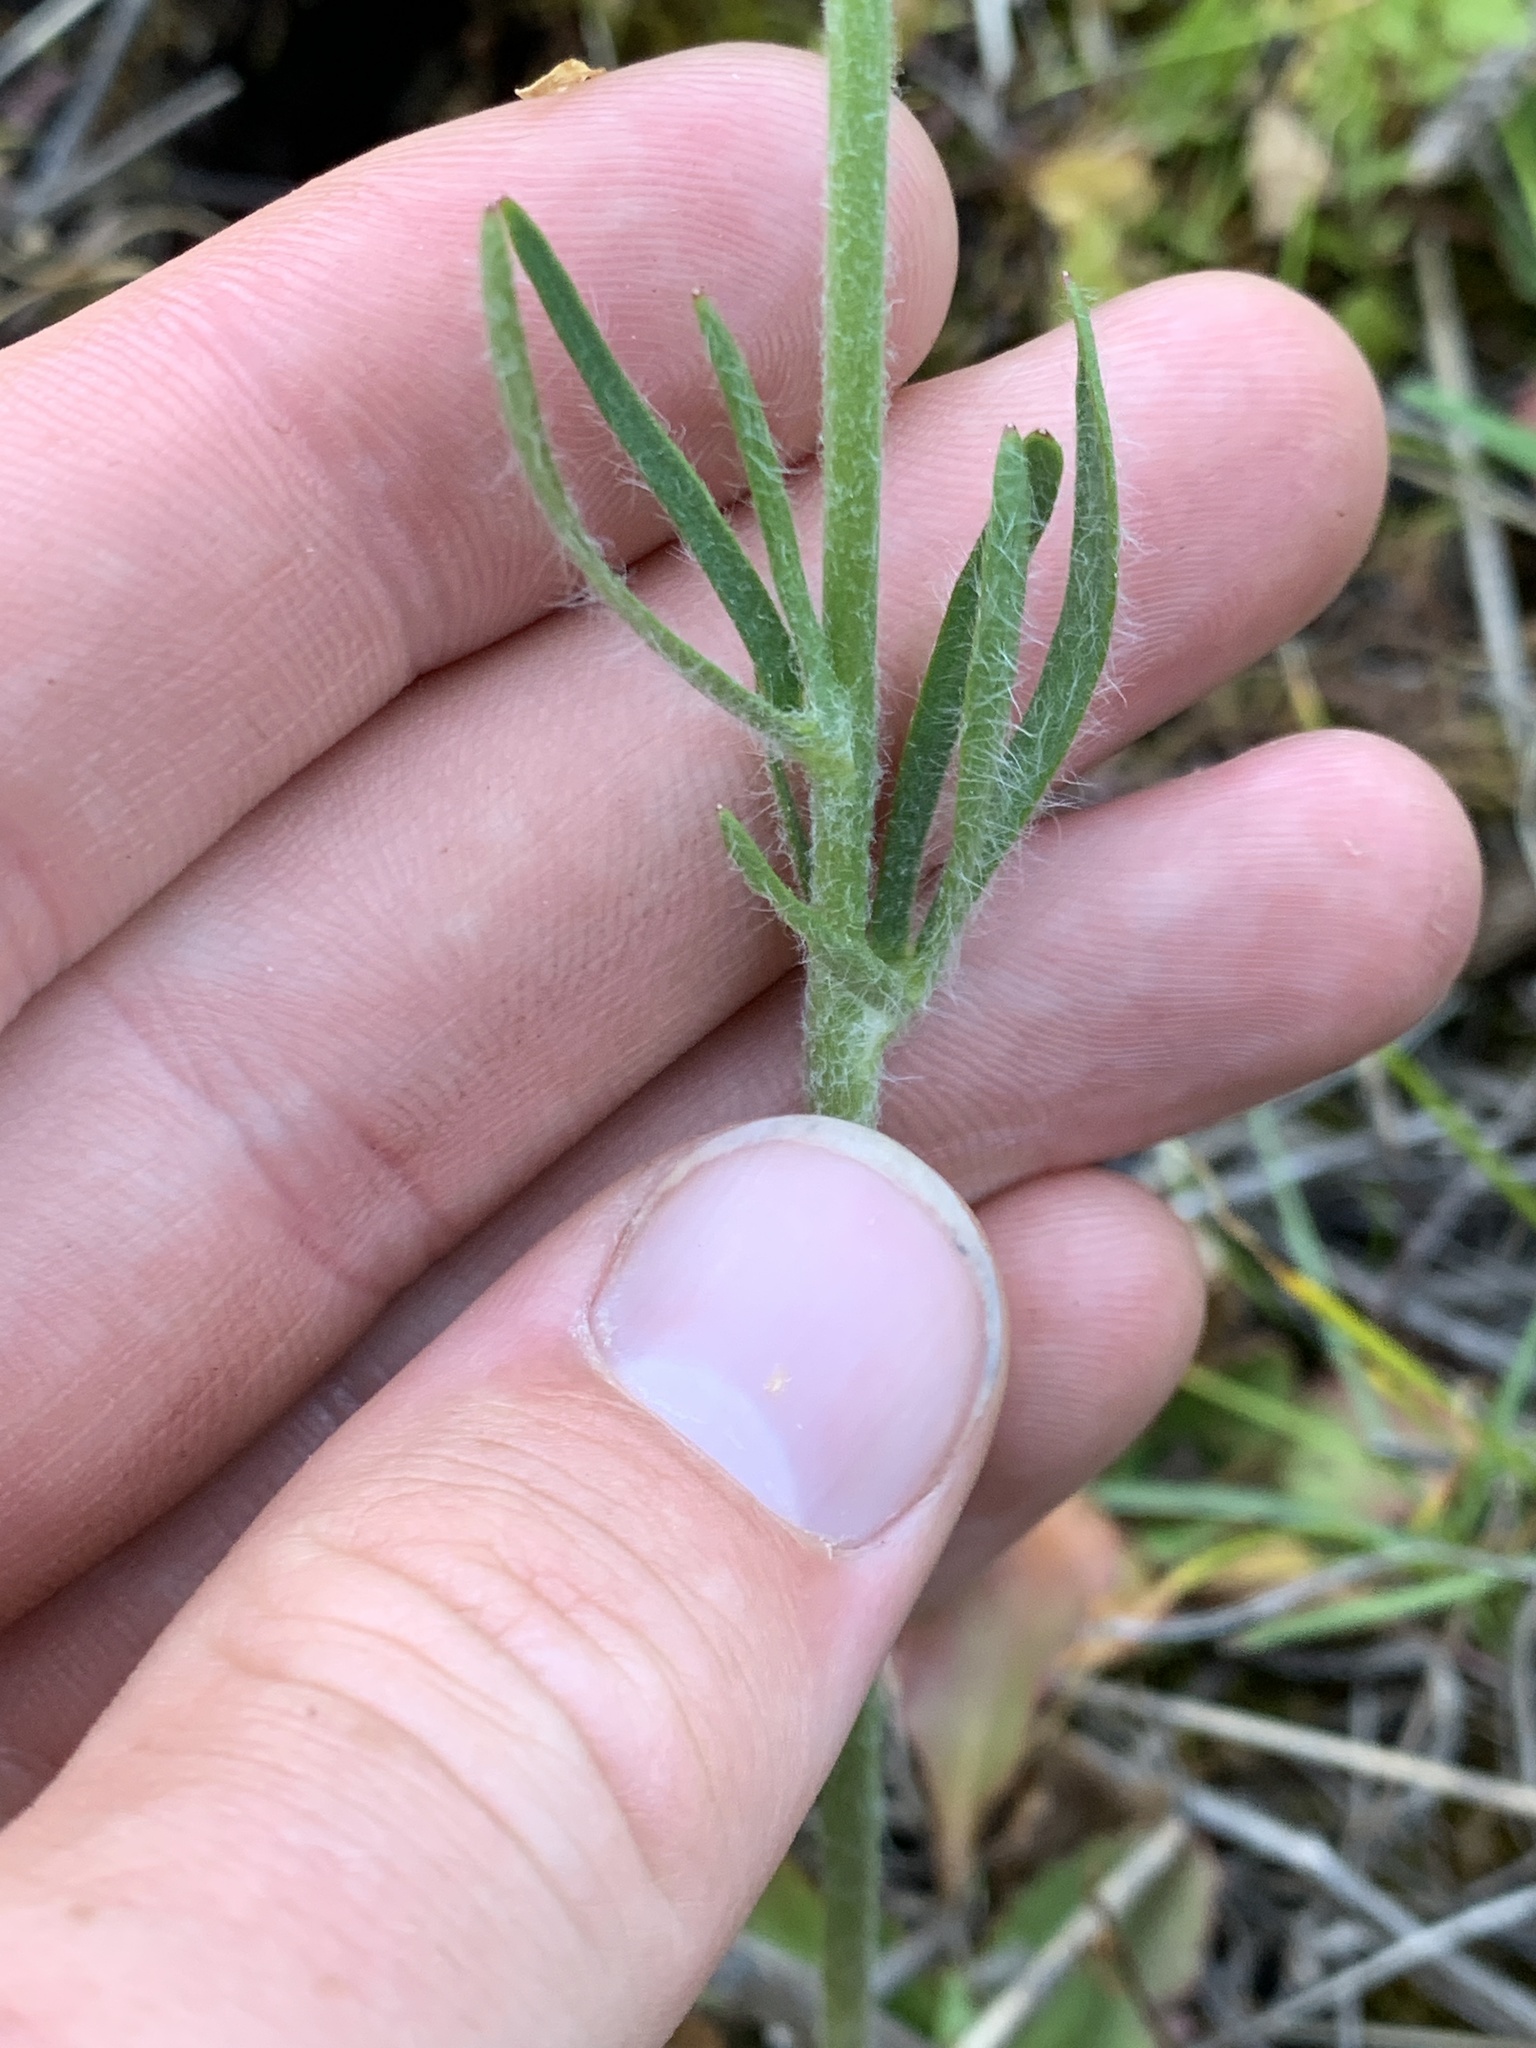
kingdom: Plantae
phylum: Tracheophyta
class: Magnoliopsida
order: Ranunculales
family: Ranunculaceae
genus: Ranunculus
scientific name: Ranunculus cardiophyllus
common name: Heart-leaved buttercup
